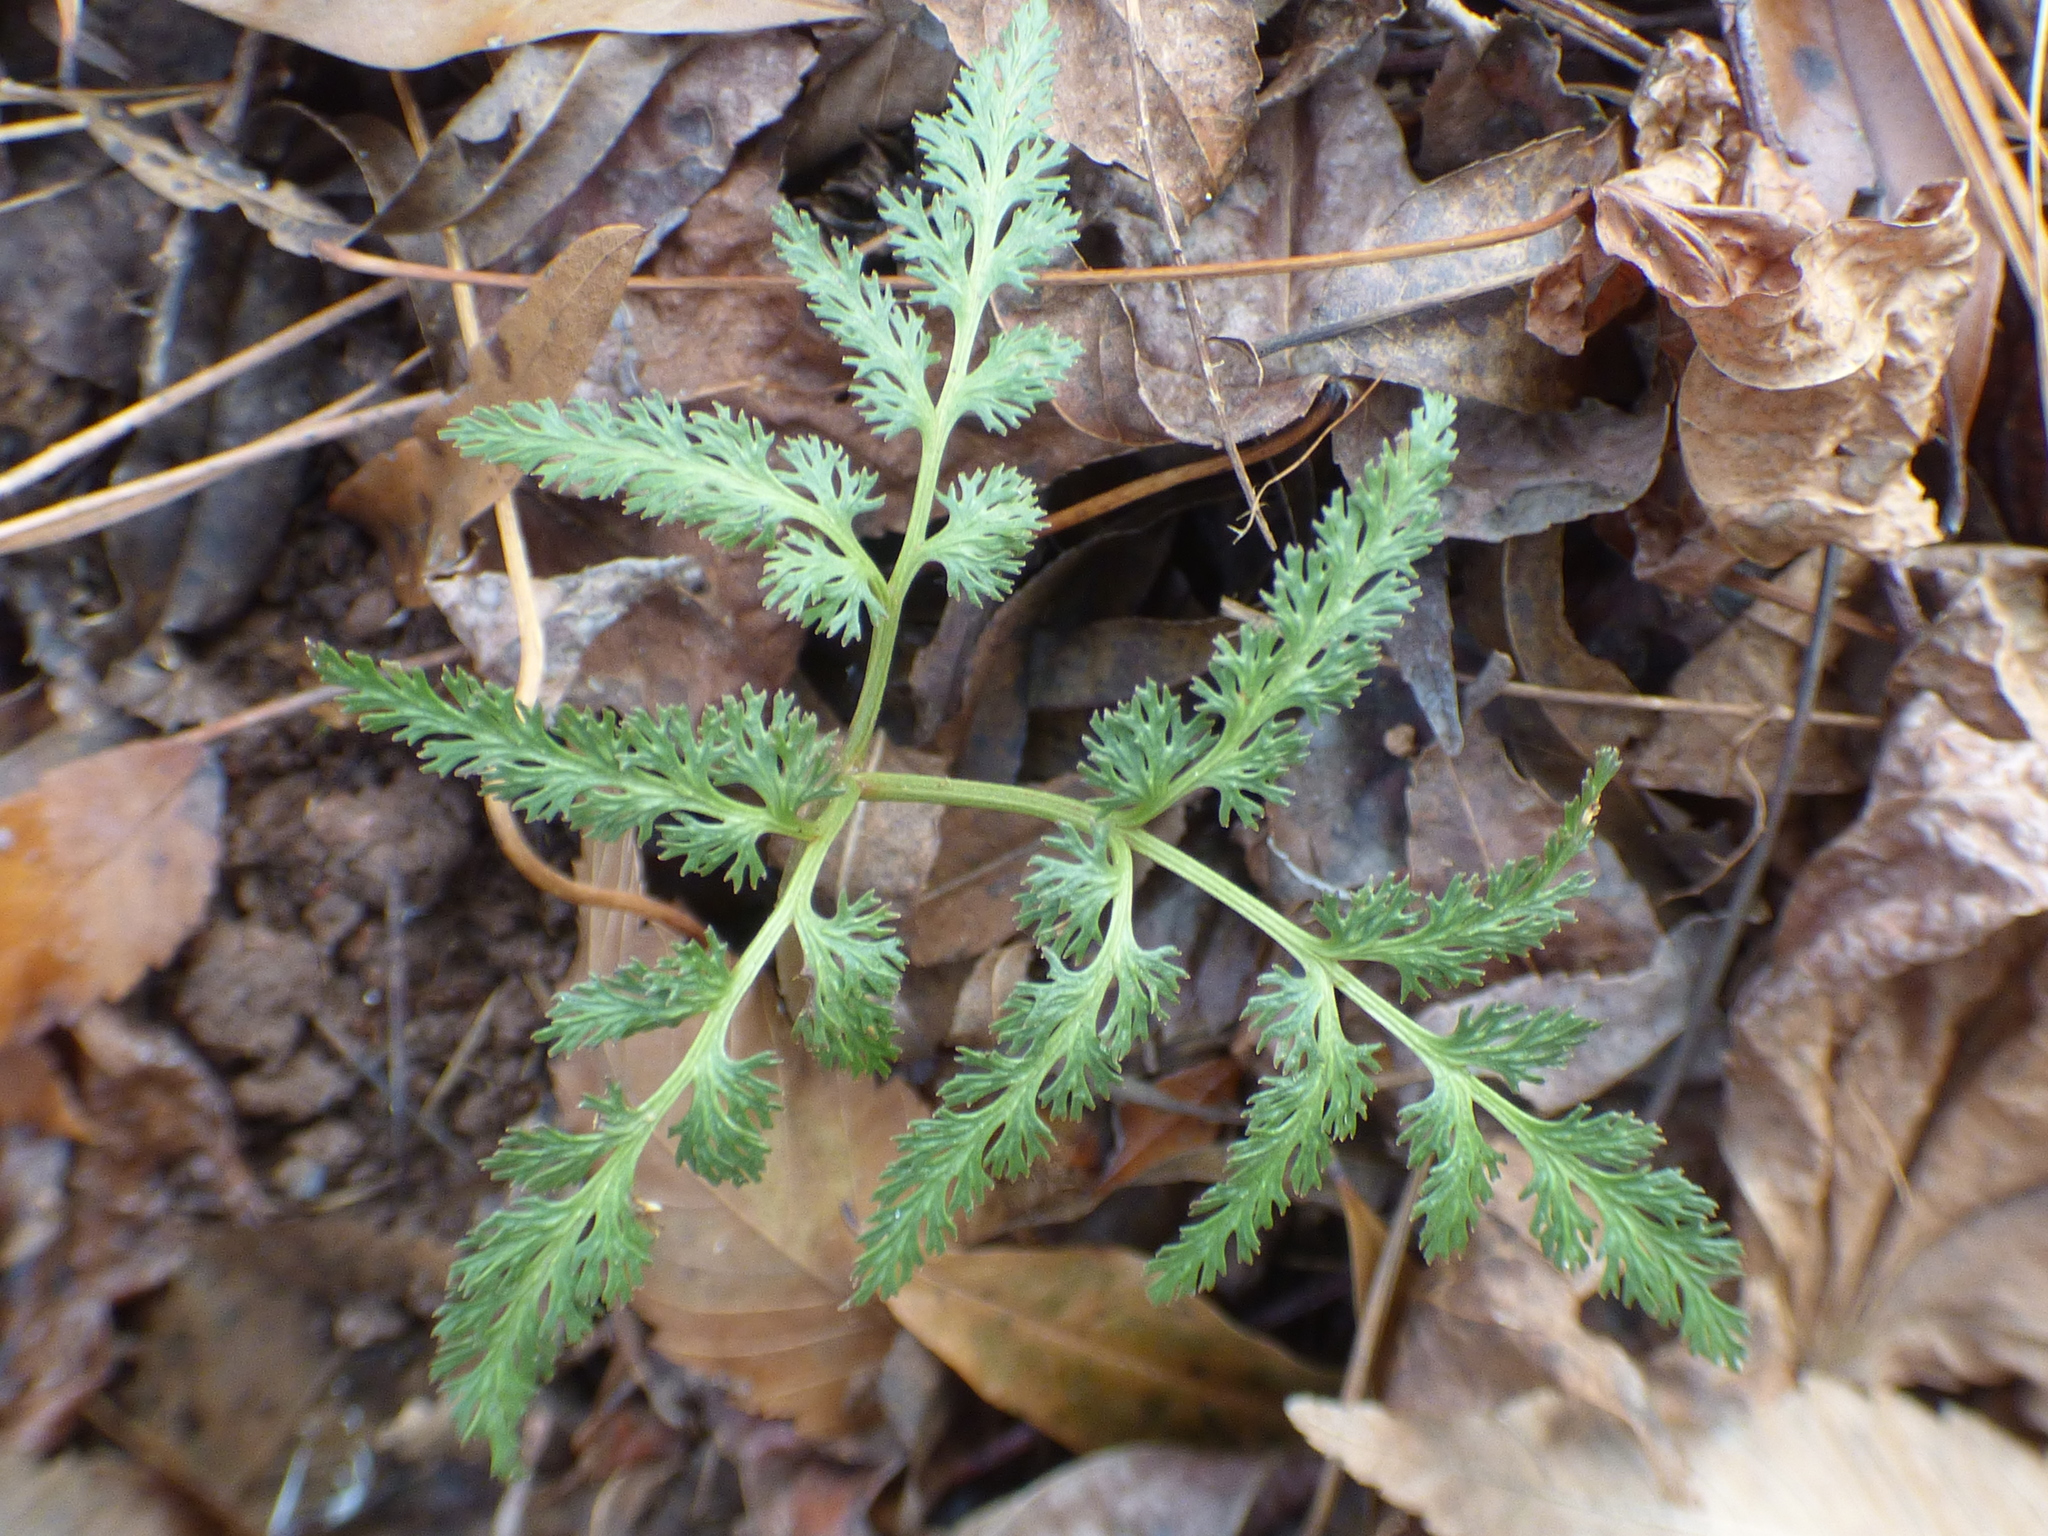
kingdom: Plantae
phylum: Tracheophyta
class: Polypodiopsida
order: Ophioglossales
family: Ophioglossaceae
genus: Sceptridium
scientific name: Sceptridium dissectum
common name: Cut-leaved grapefern
